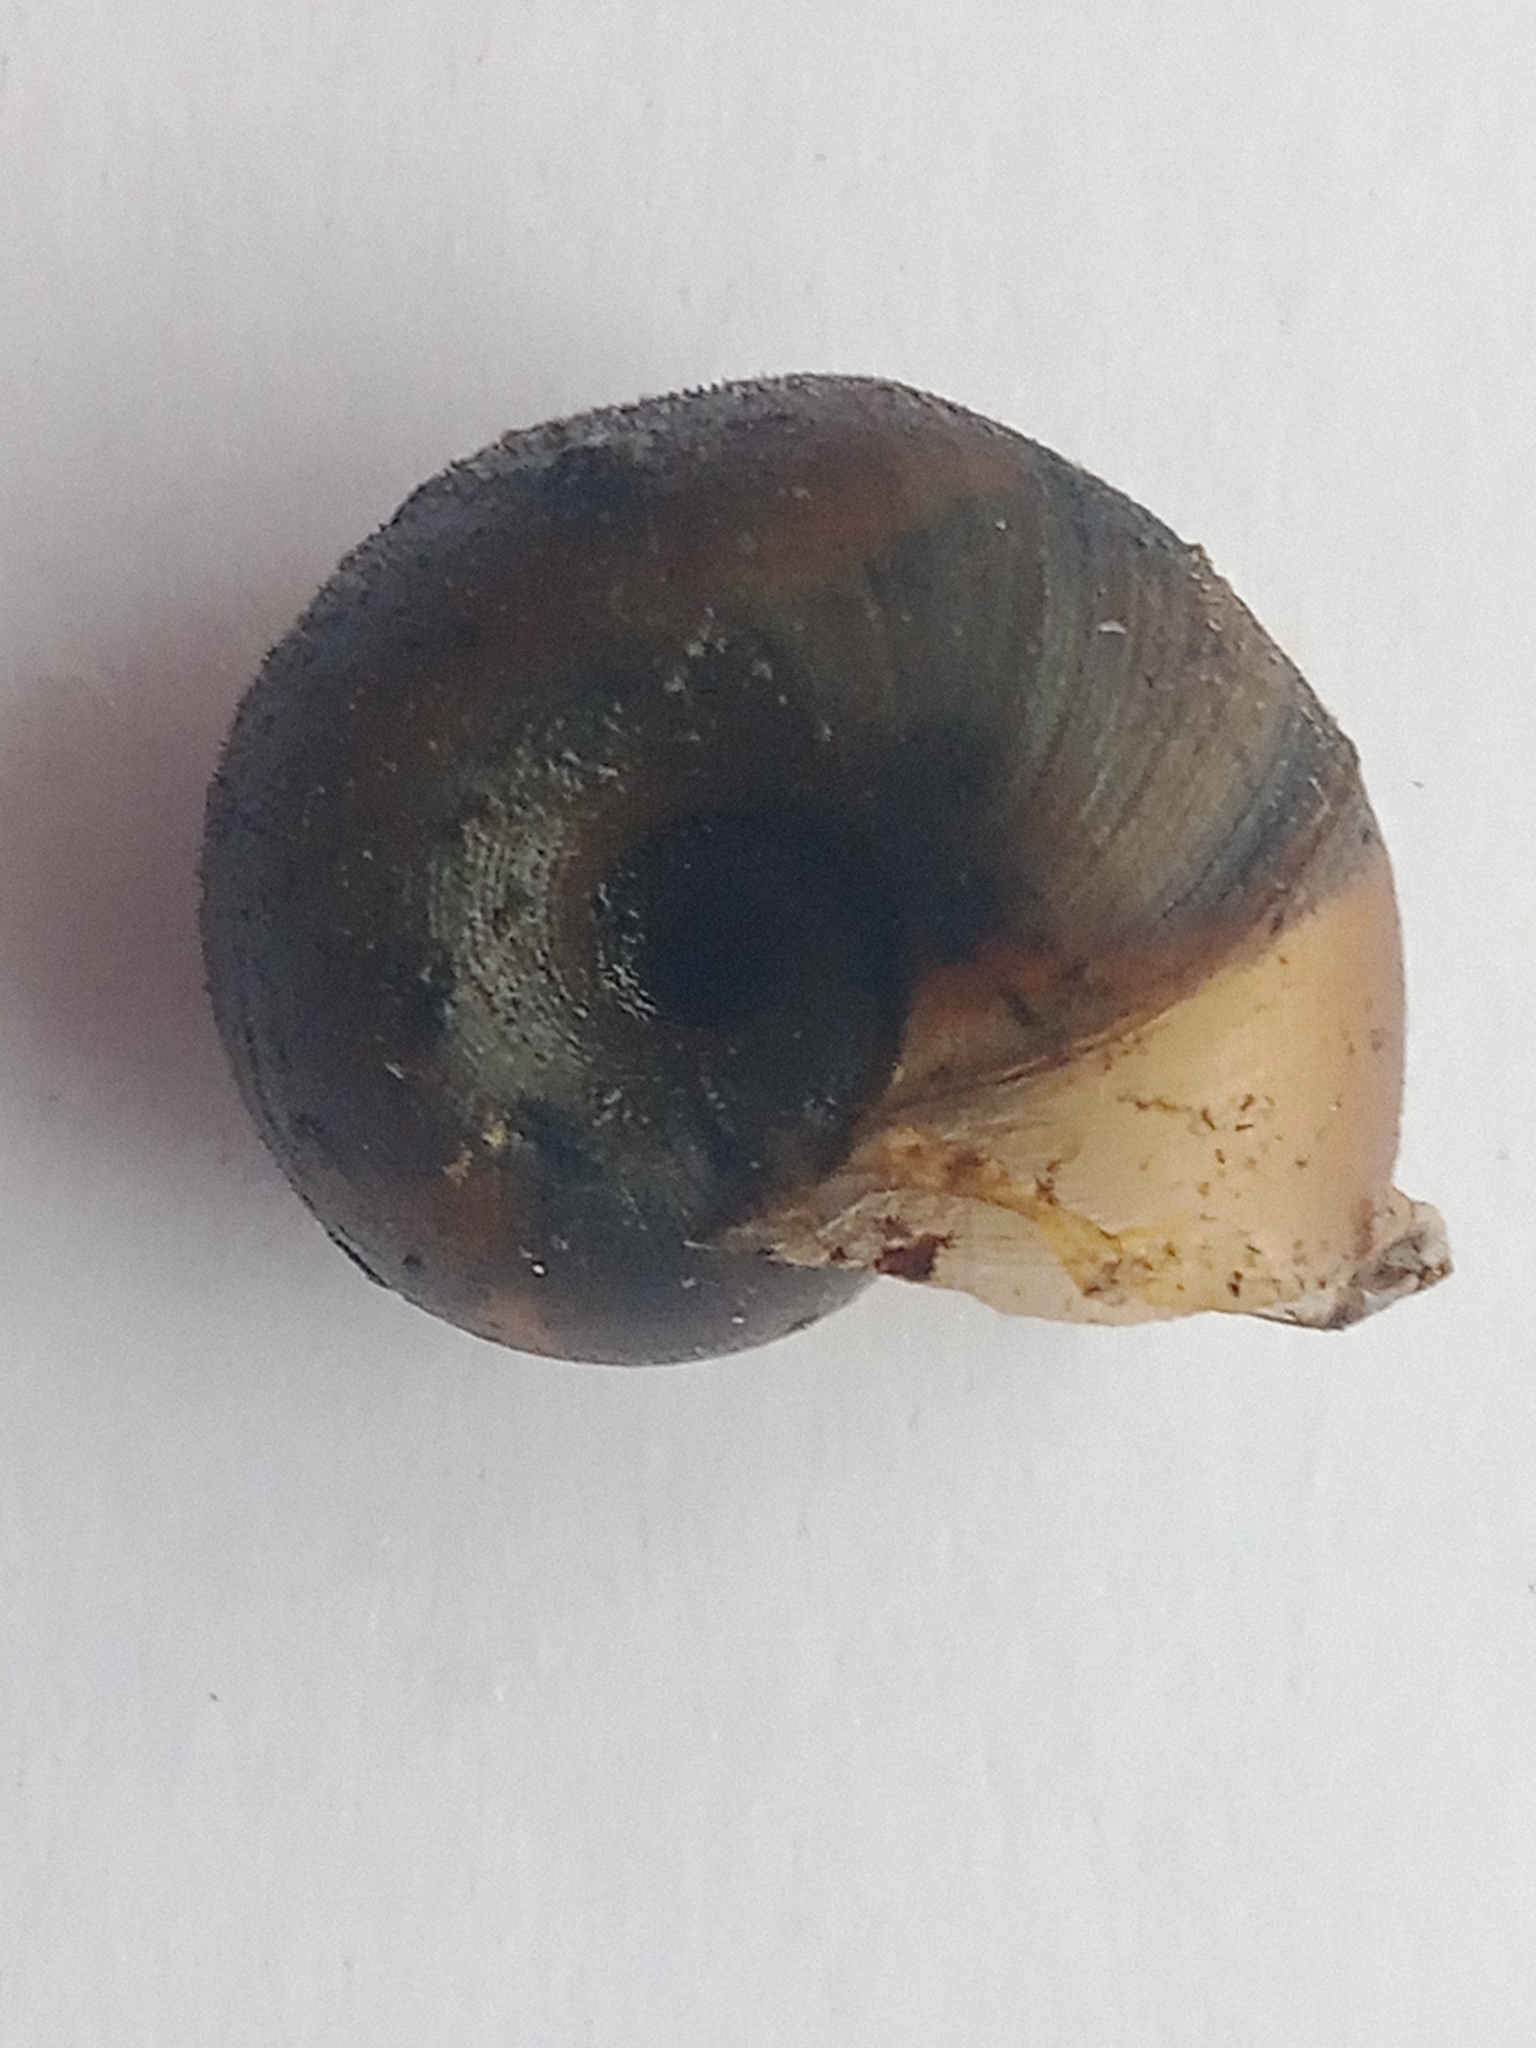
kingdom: Animalia
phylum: Mollusca
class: Gastropoda
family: Planorbidae
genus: Planorbarius
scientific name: Planorbarius corneus
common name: Great ramshorn
